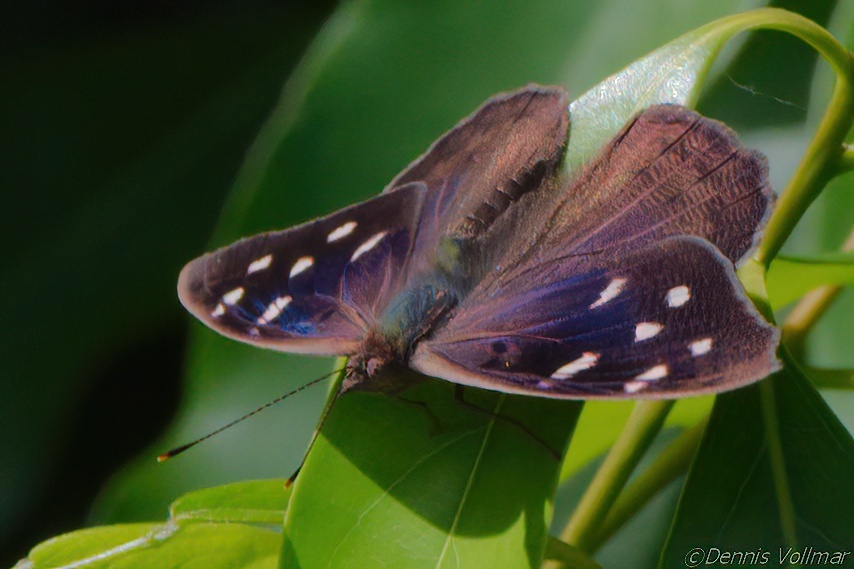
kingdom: Animalia
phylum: Arthropoda
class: Insecta
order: Lepidoptera
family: Nymphalidae
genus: Eunica
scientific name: Eunica tatila
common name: Florida purplewing
